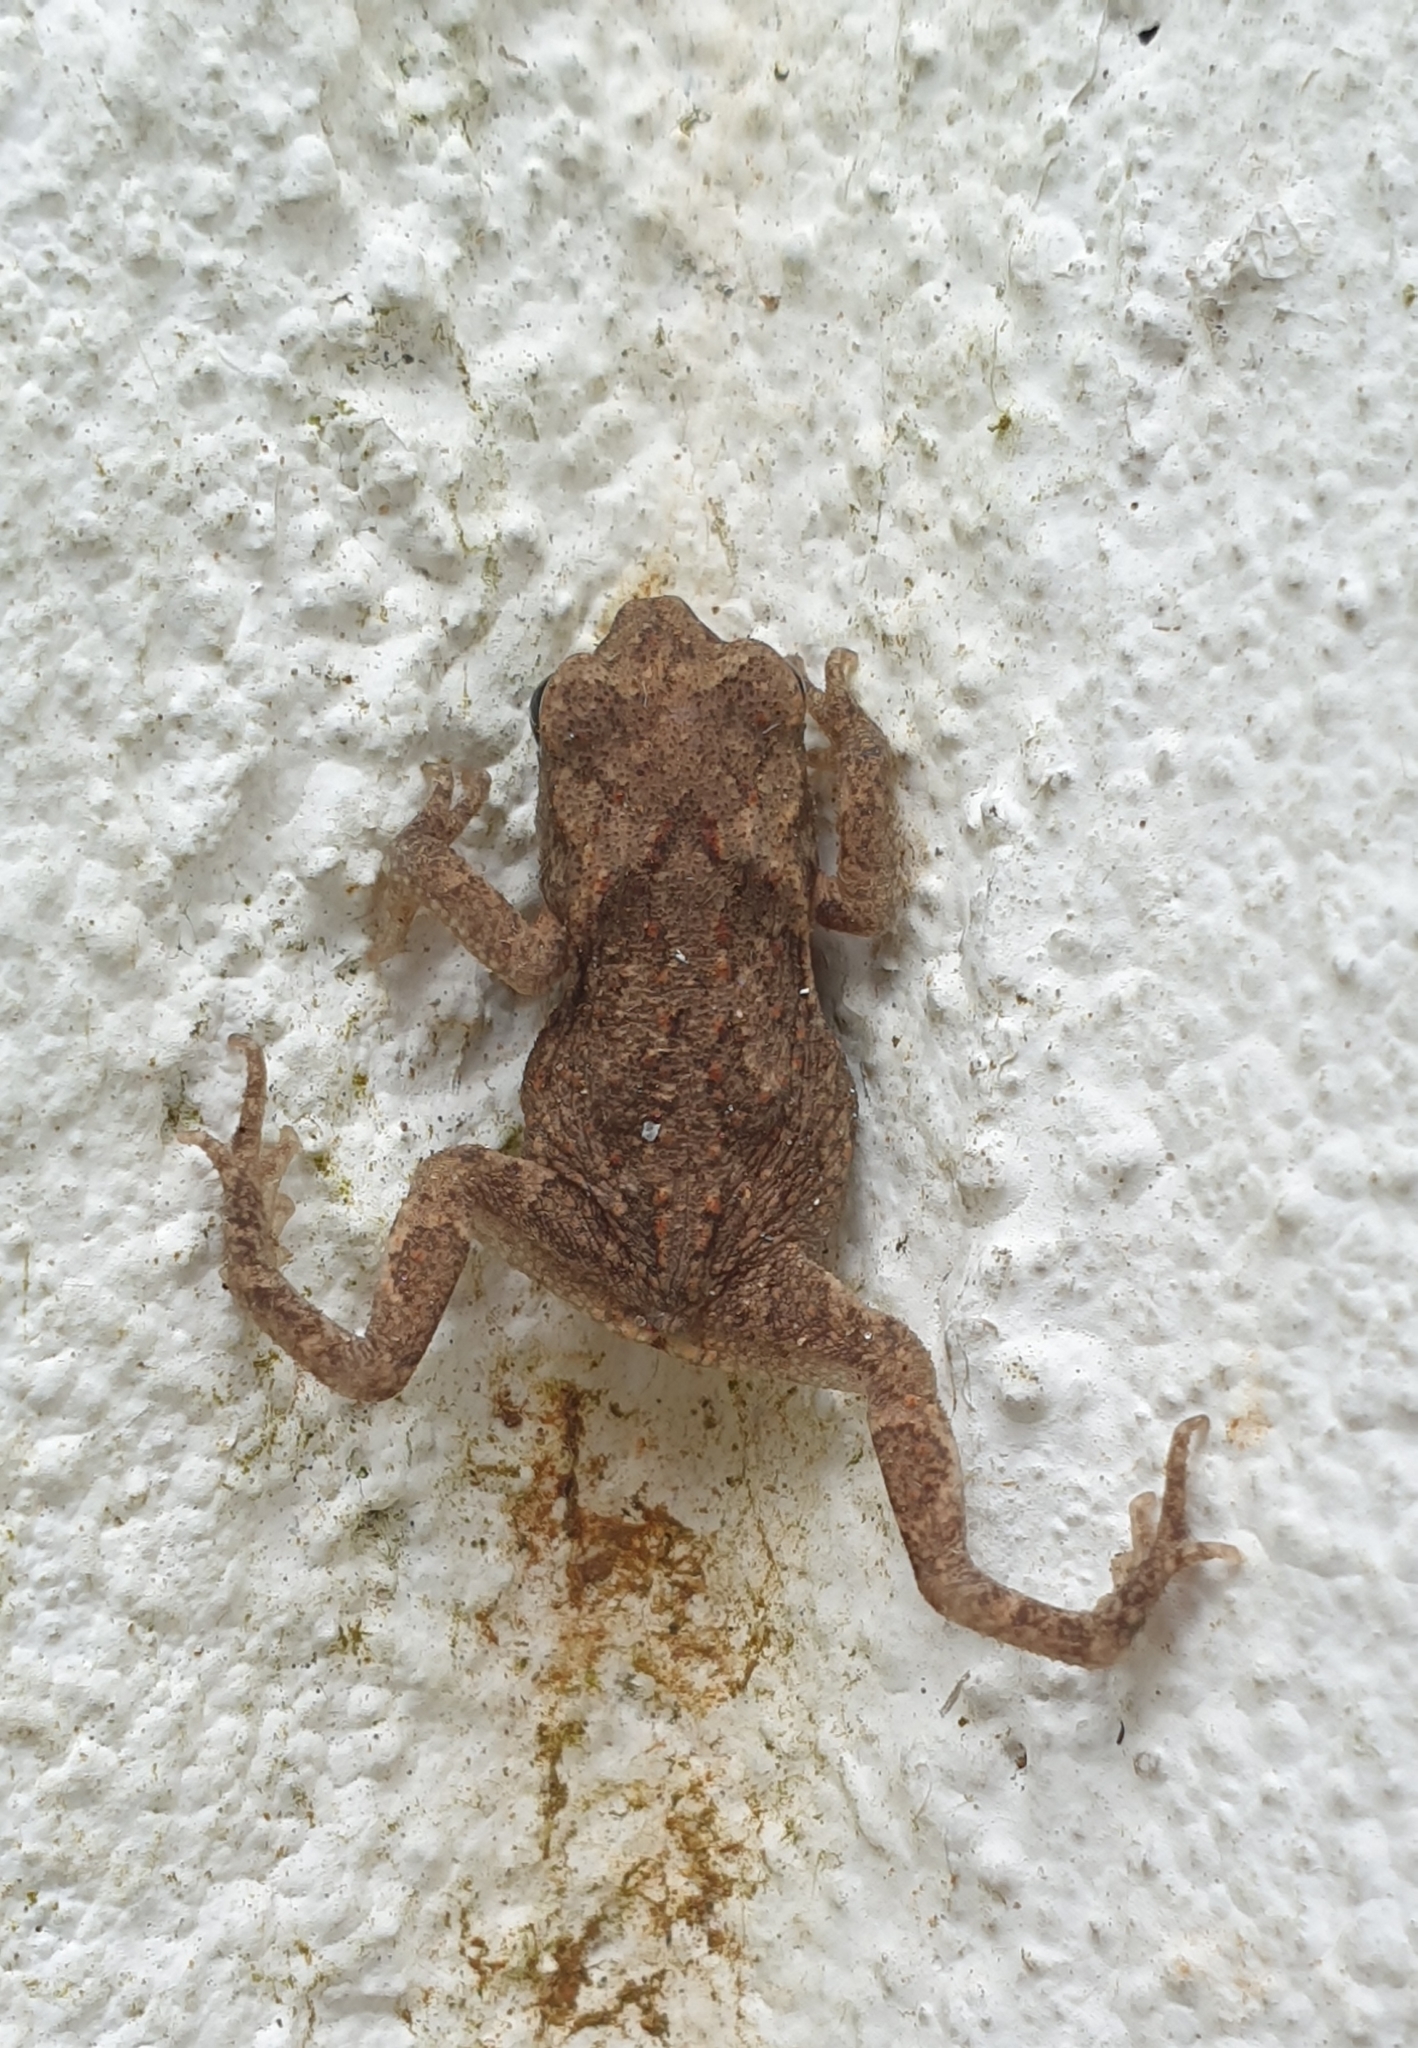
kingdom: Animalia
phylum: Chordata
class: Amphibia
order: Anura
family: Bufonidae
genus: Duttaphrynus
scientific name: Duttaphrynus melanostictus
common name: Common sunda toad
